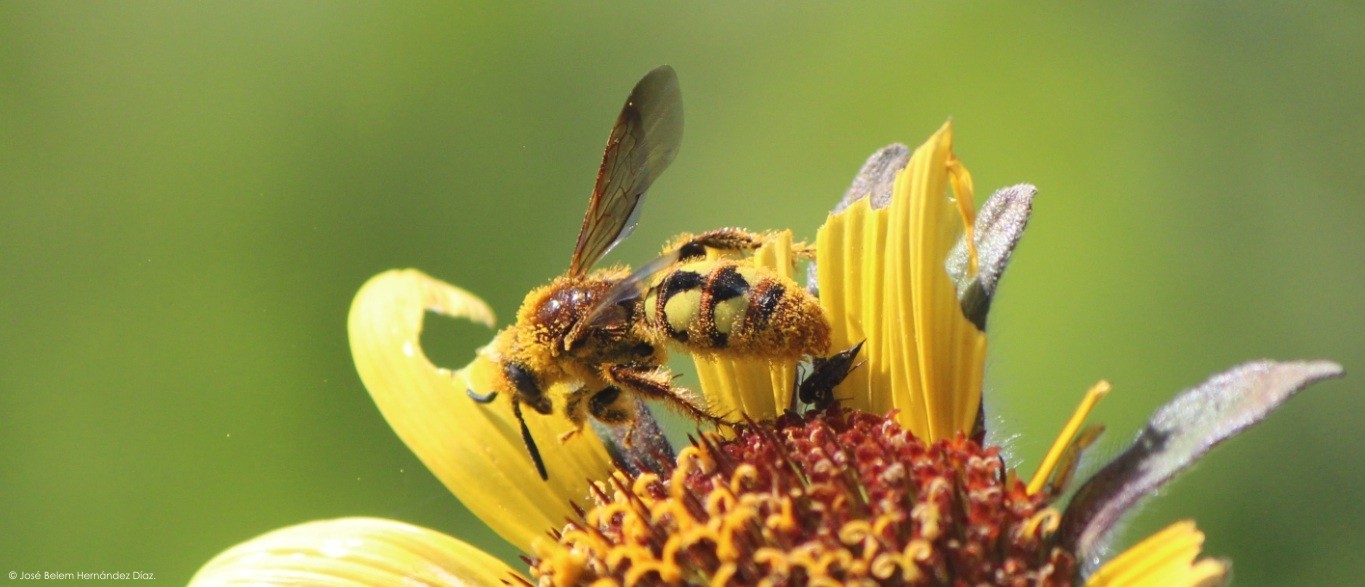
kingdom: Animalia
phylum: Arthropoda
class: Insecta
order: Hymenoptera
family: Scoliidae
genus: Xantocampsomeris
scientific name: Xantocampsomeris limosa
